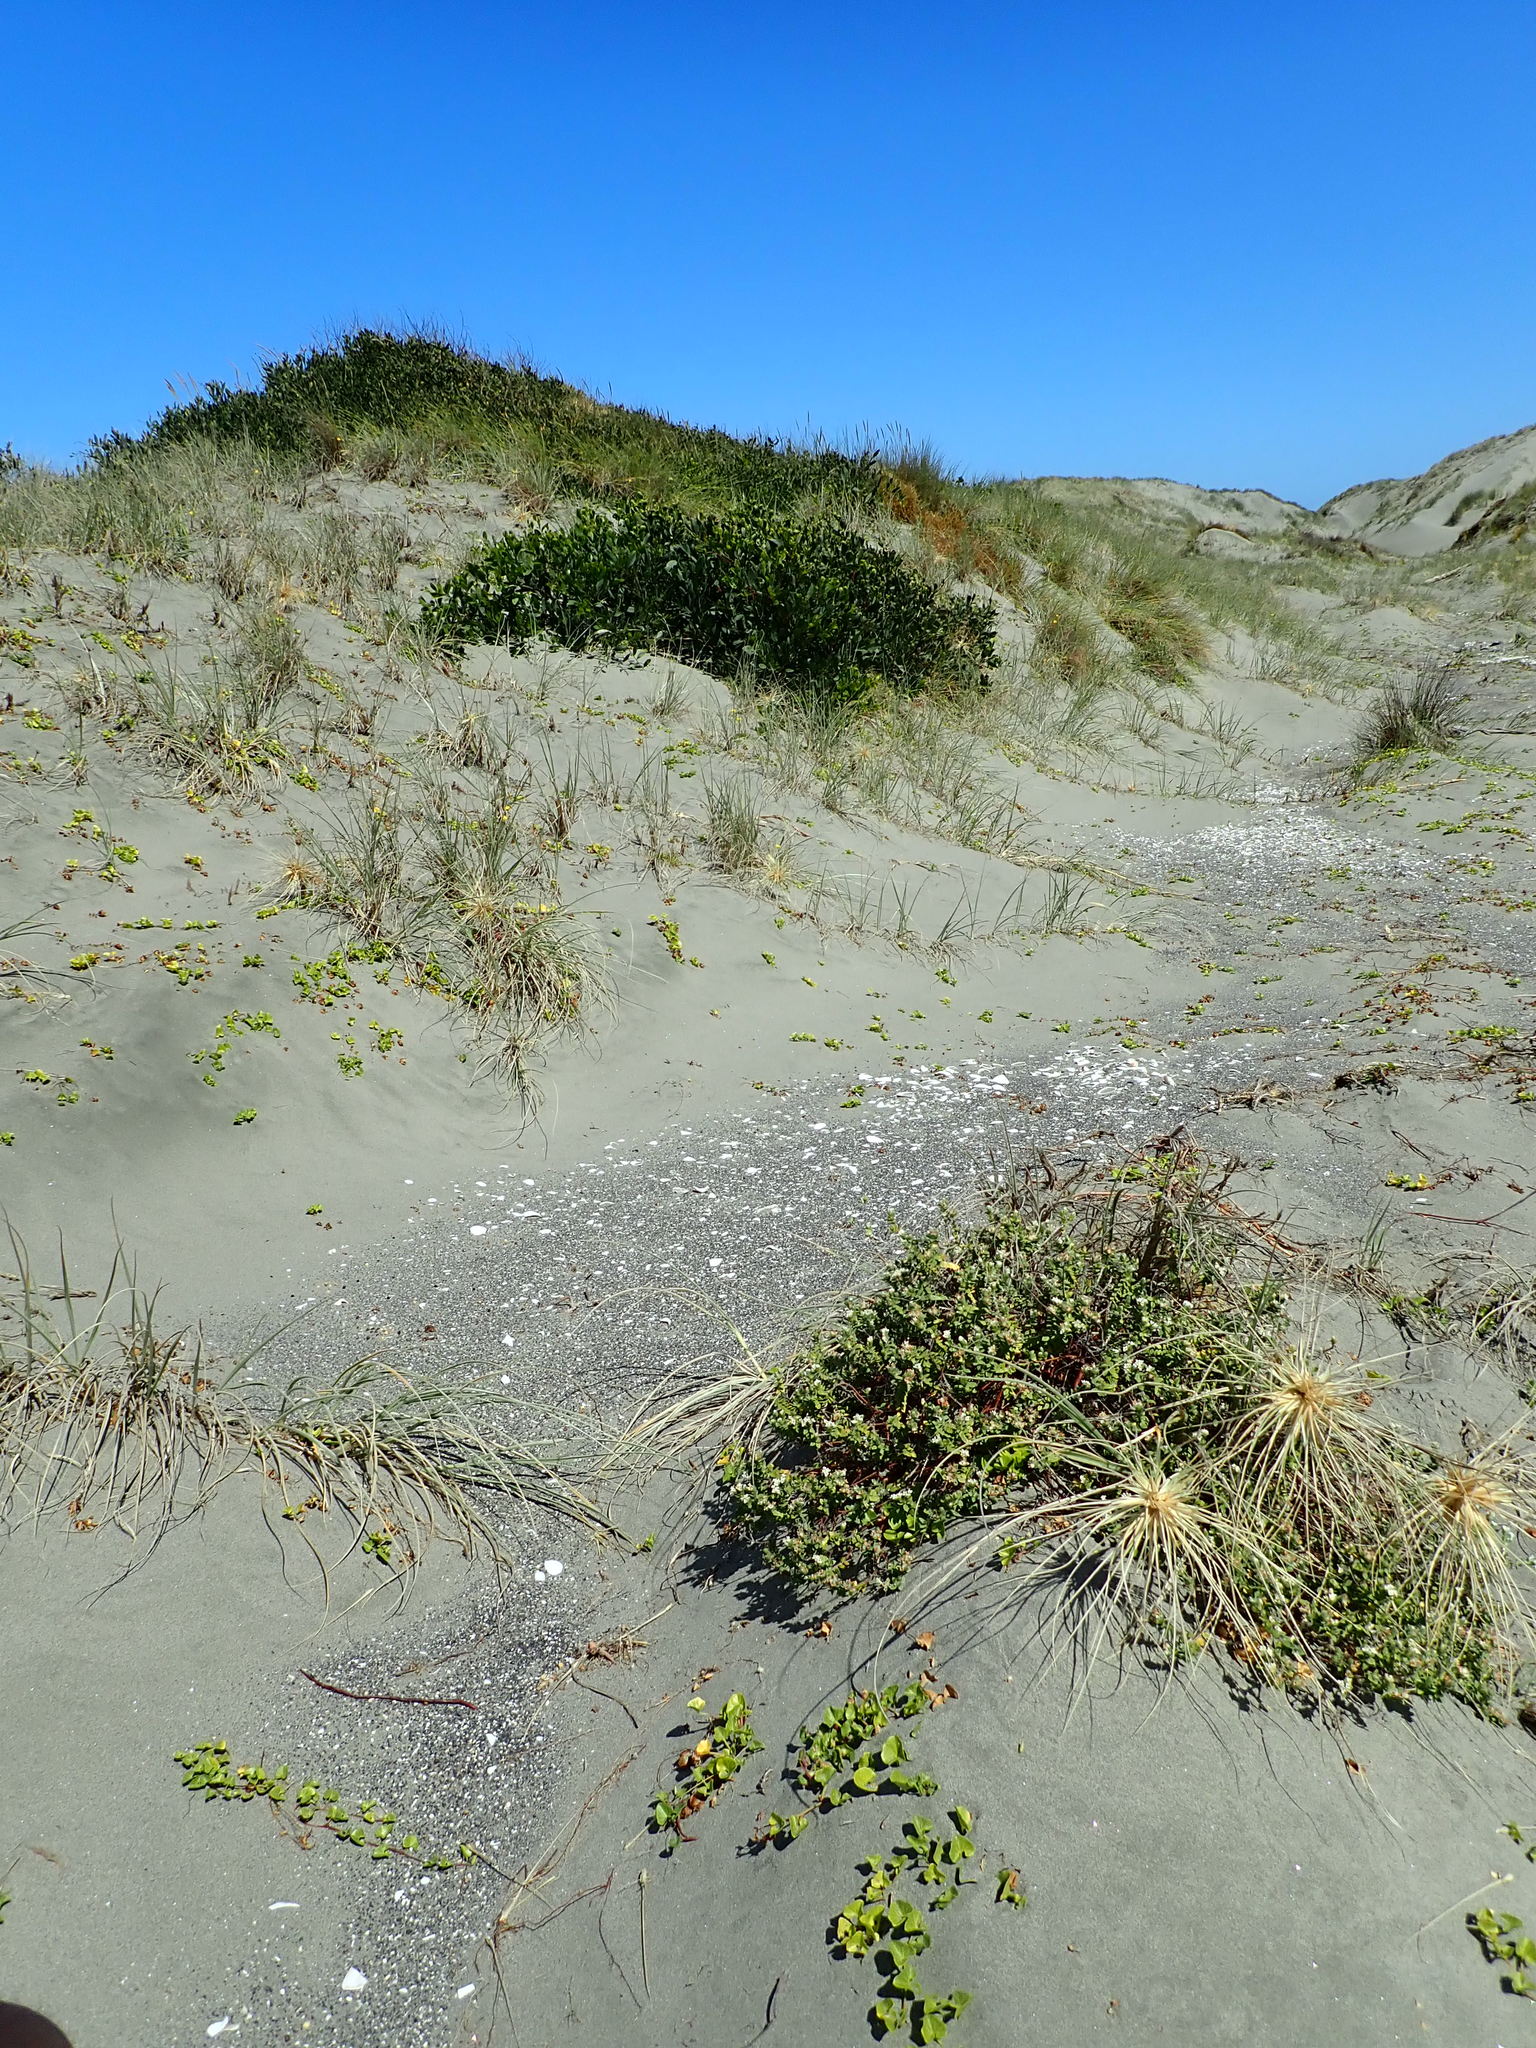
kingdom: Plantae
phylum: Tracheophyta
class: Magnoliopsida
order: Malvales
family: Thymelaeaceae
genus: Pimelea
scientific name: Pimelea villosa
